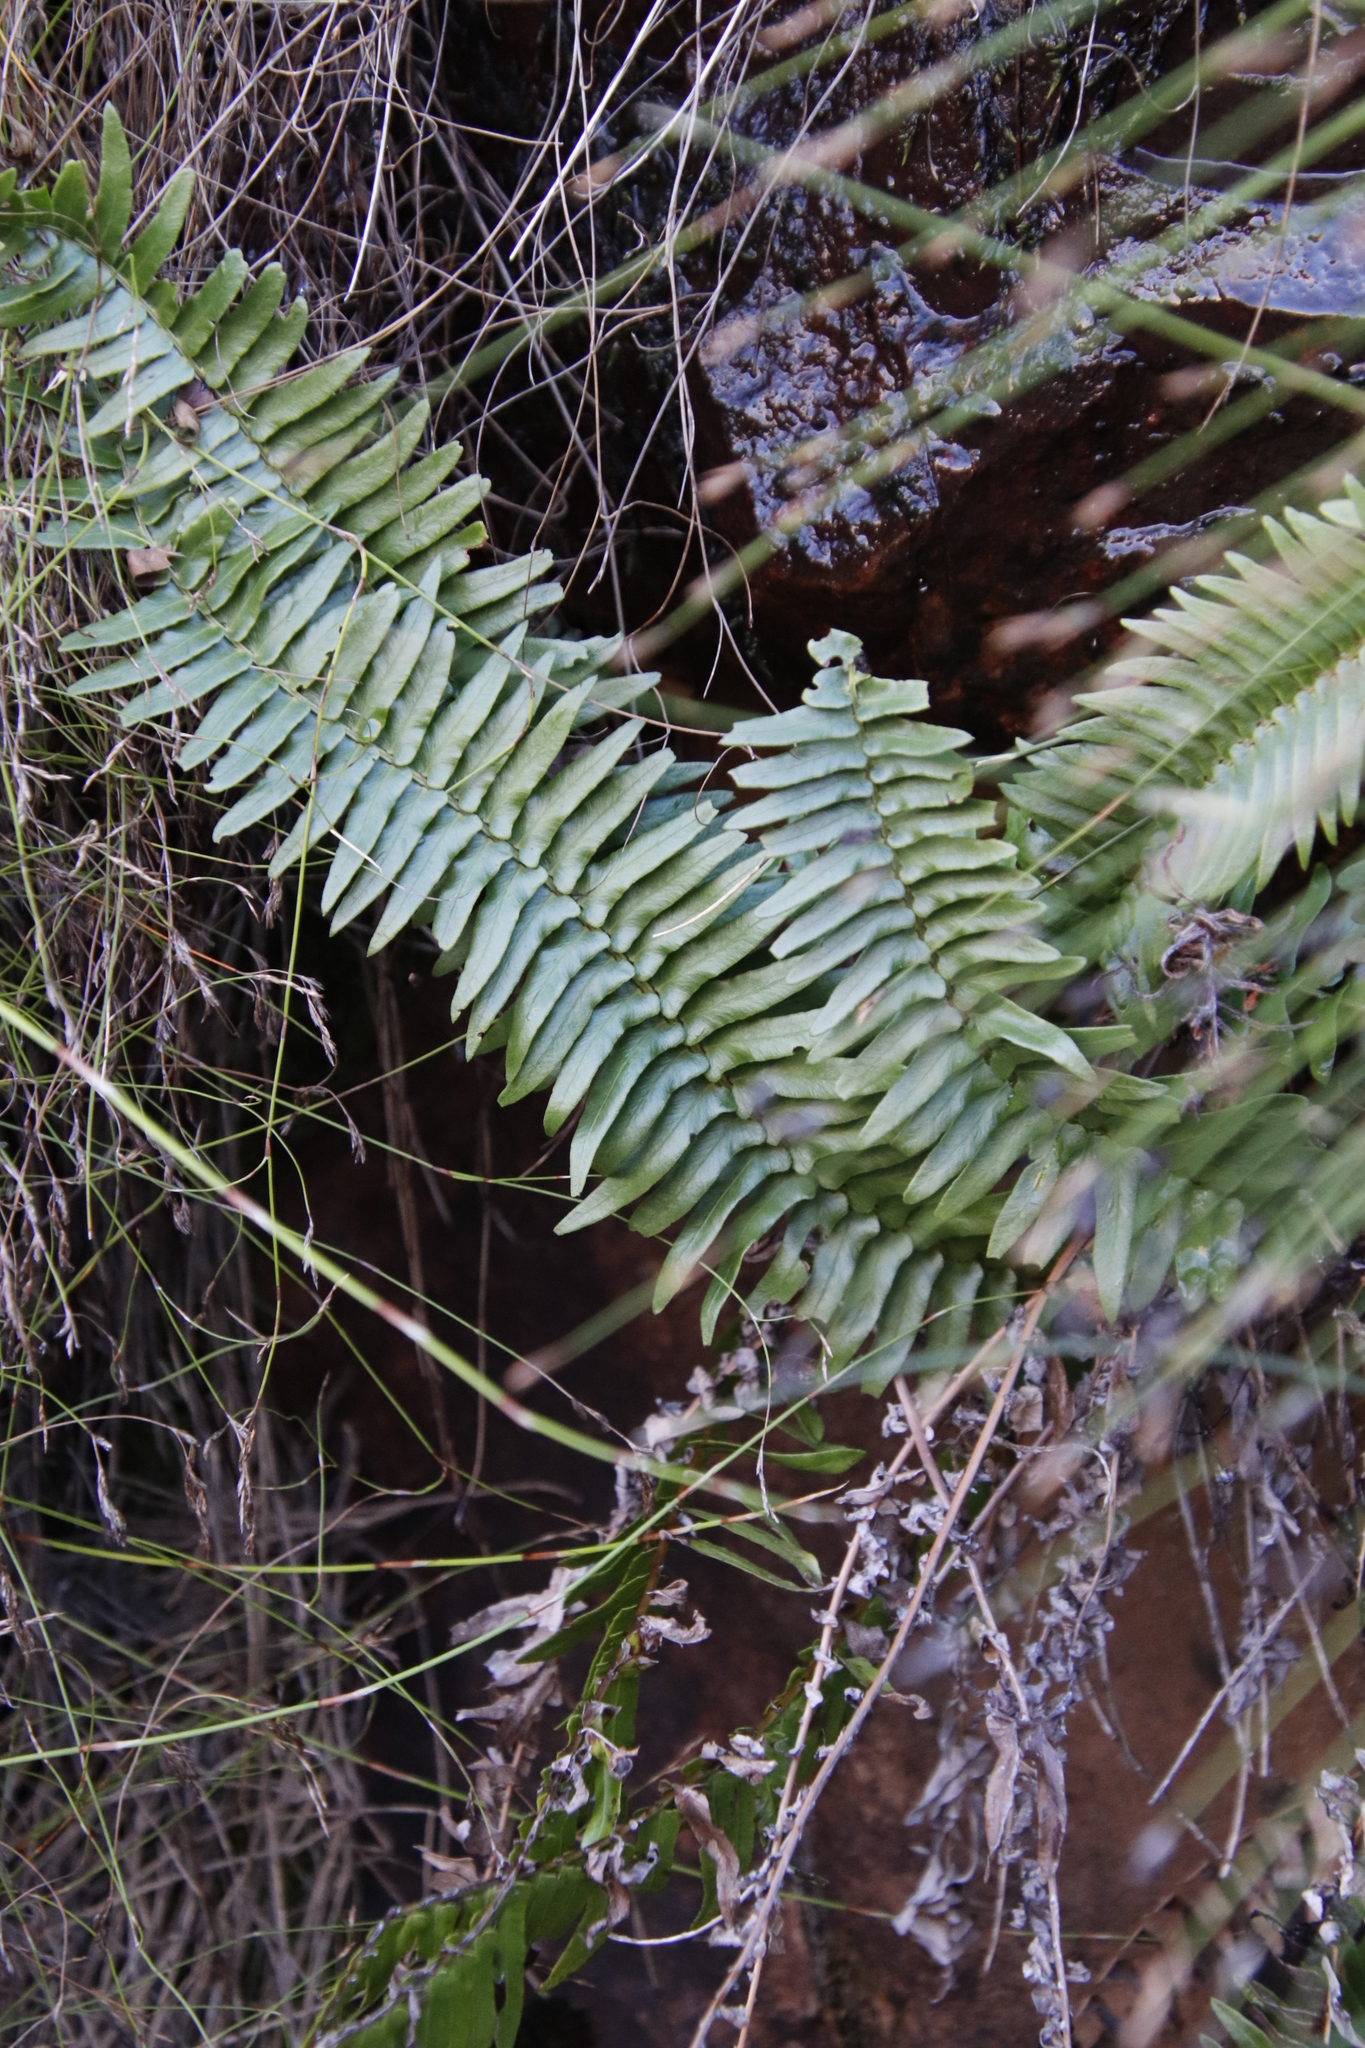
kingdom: Plantae
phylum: Tracheophyta
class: Polypodiopsida
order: Polypodiales
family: Blechnaceae
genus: Blechnum
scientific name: Blechnum punctulatum
